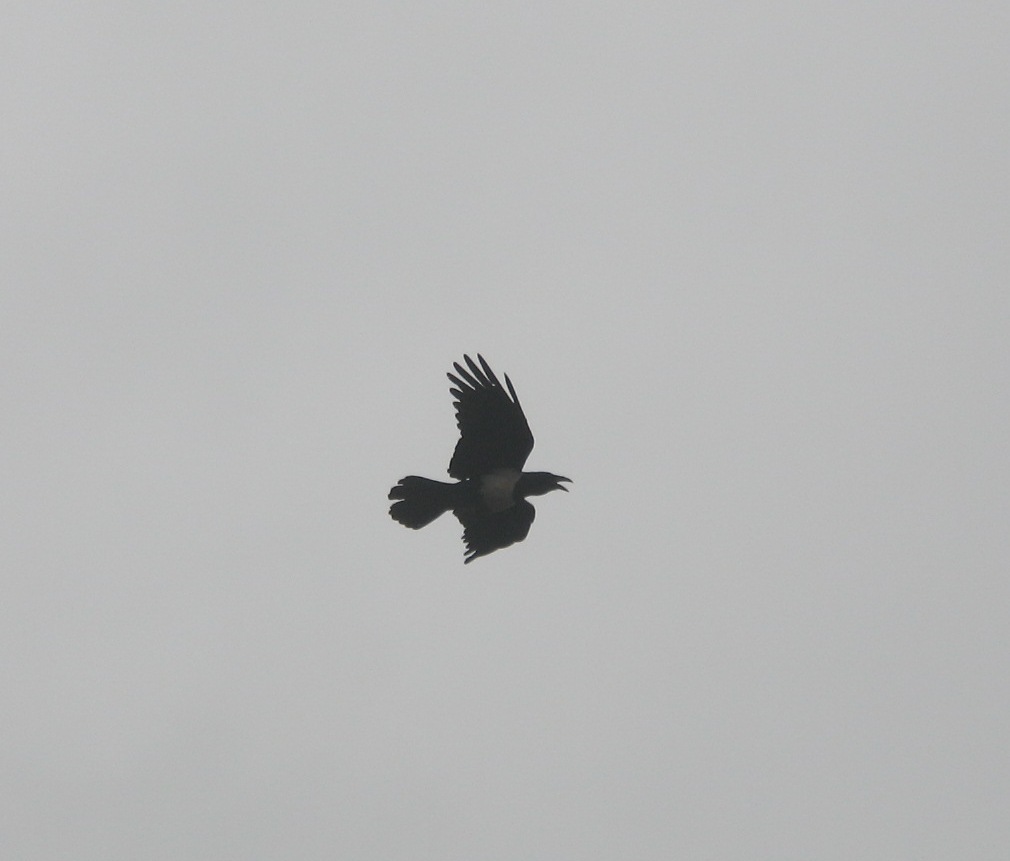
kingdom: Animalia
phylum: Chordata
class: Aves
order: Passeriformes
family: Corvidae
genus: Corvus
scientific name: Corvus albus
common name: Pied crow
